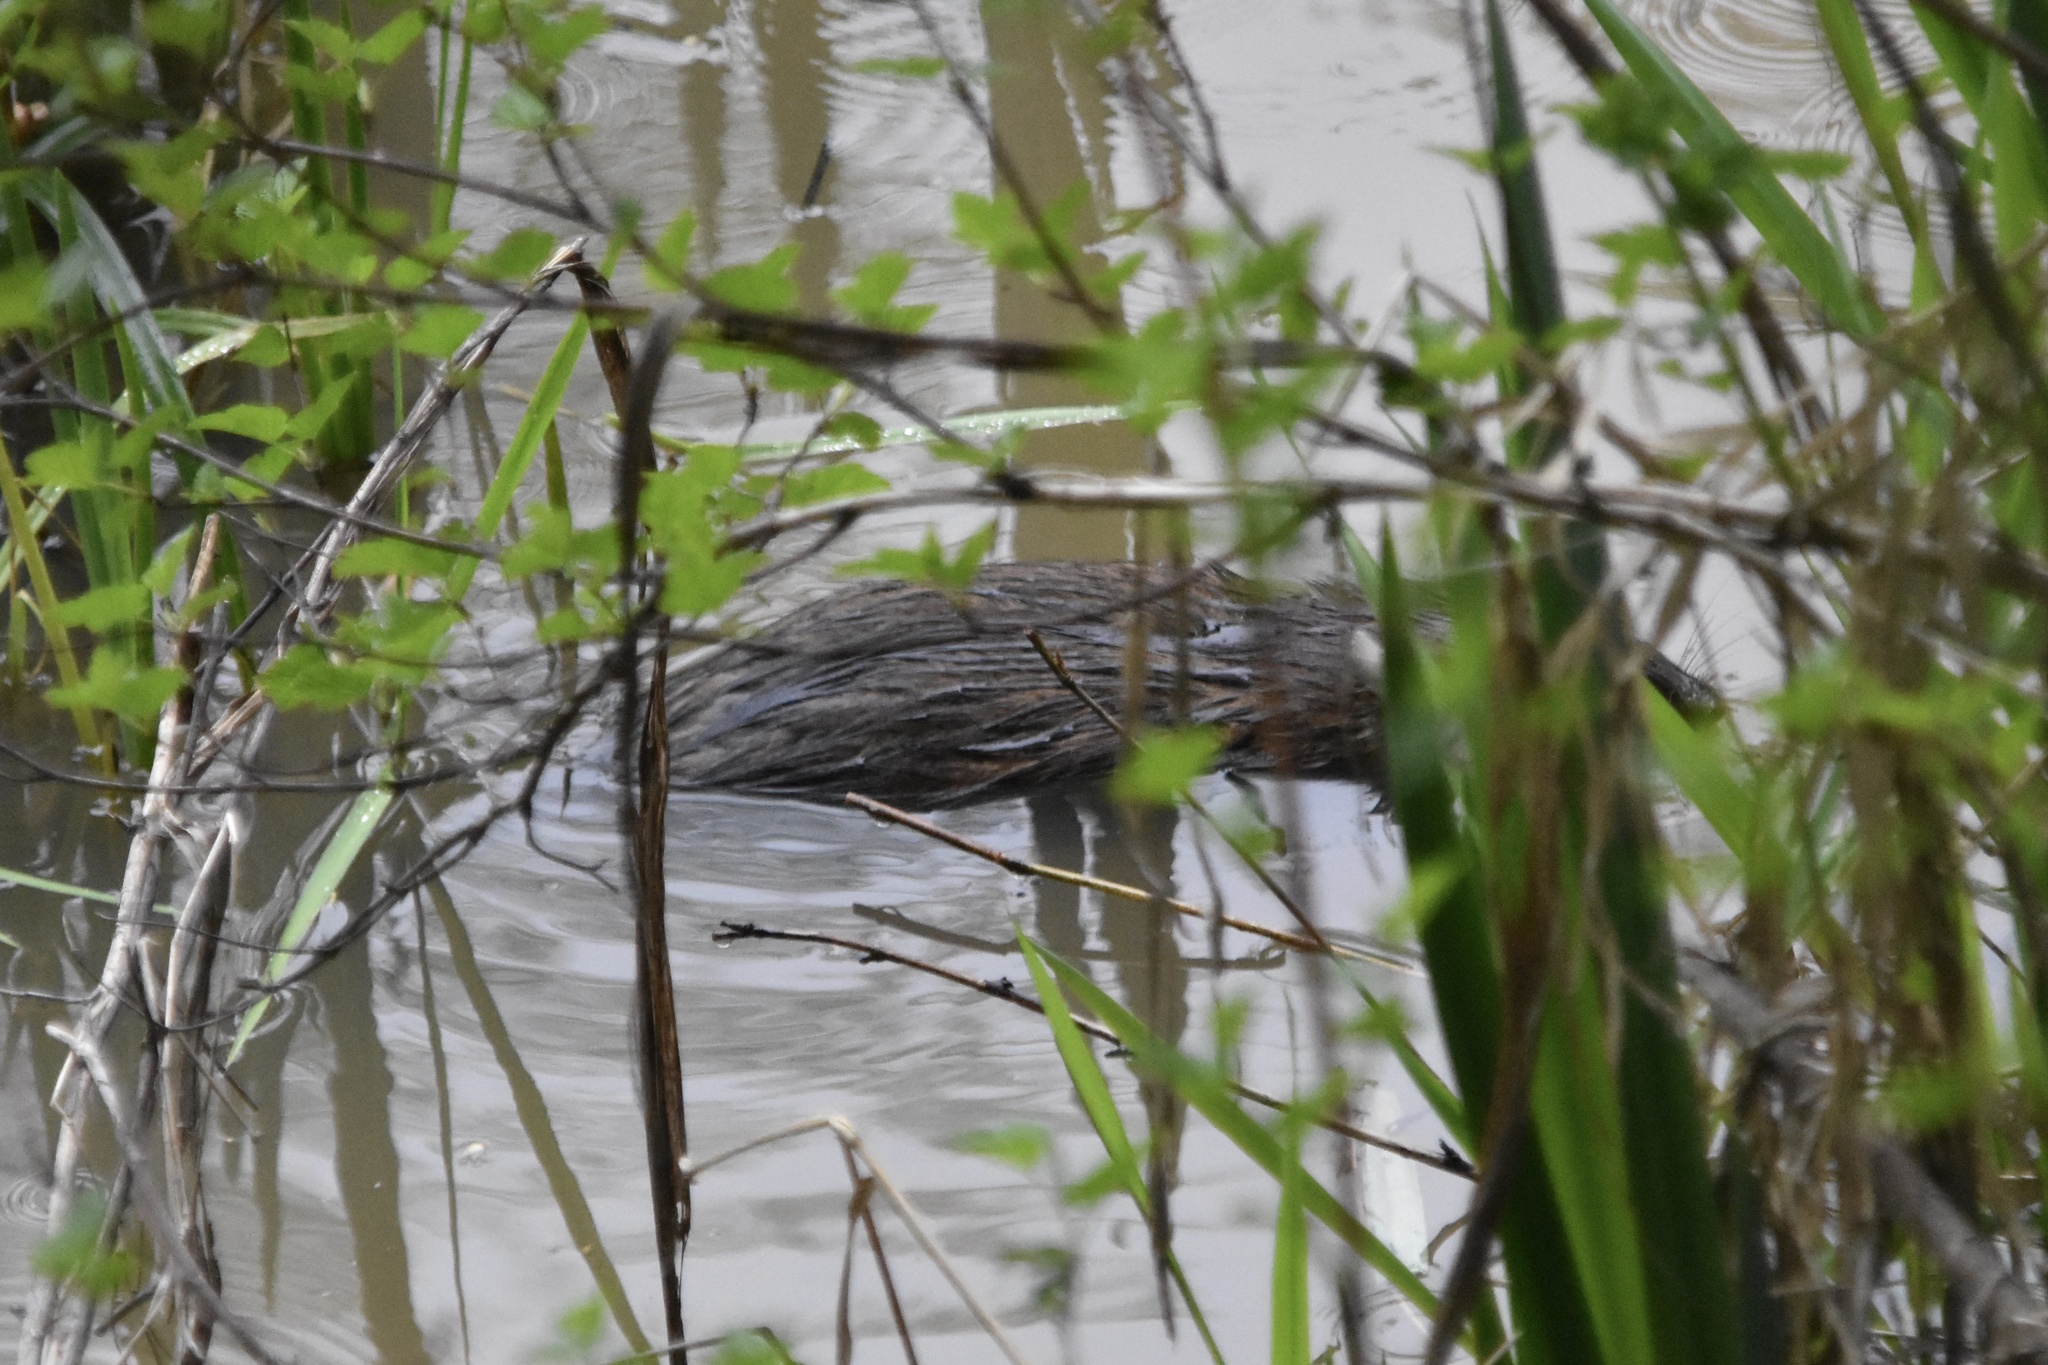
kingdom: Animalia
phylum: Chordata
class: Mammalia
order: Rodentia
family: Cricetidae
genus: Ondatra
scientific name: Ondatra zibethicus
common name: Muskrat
